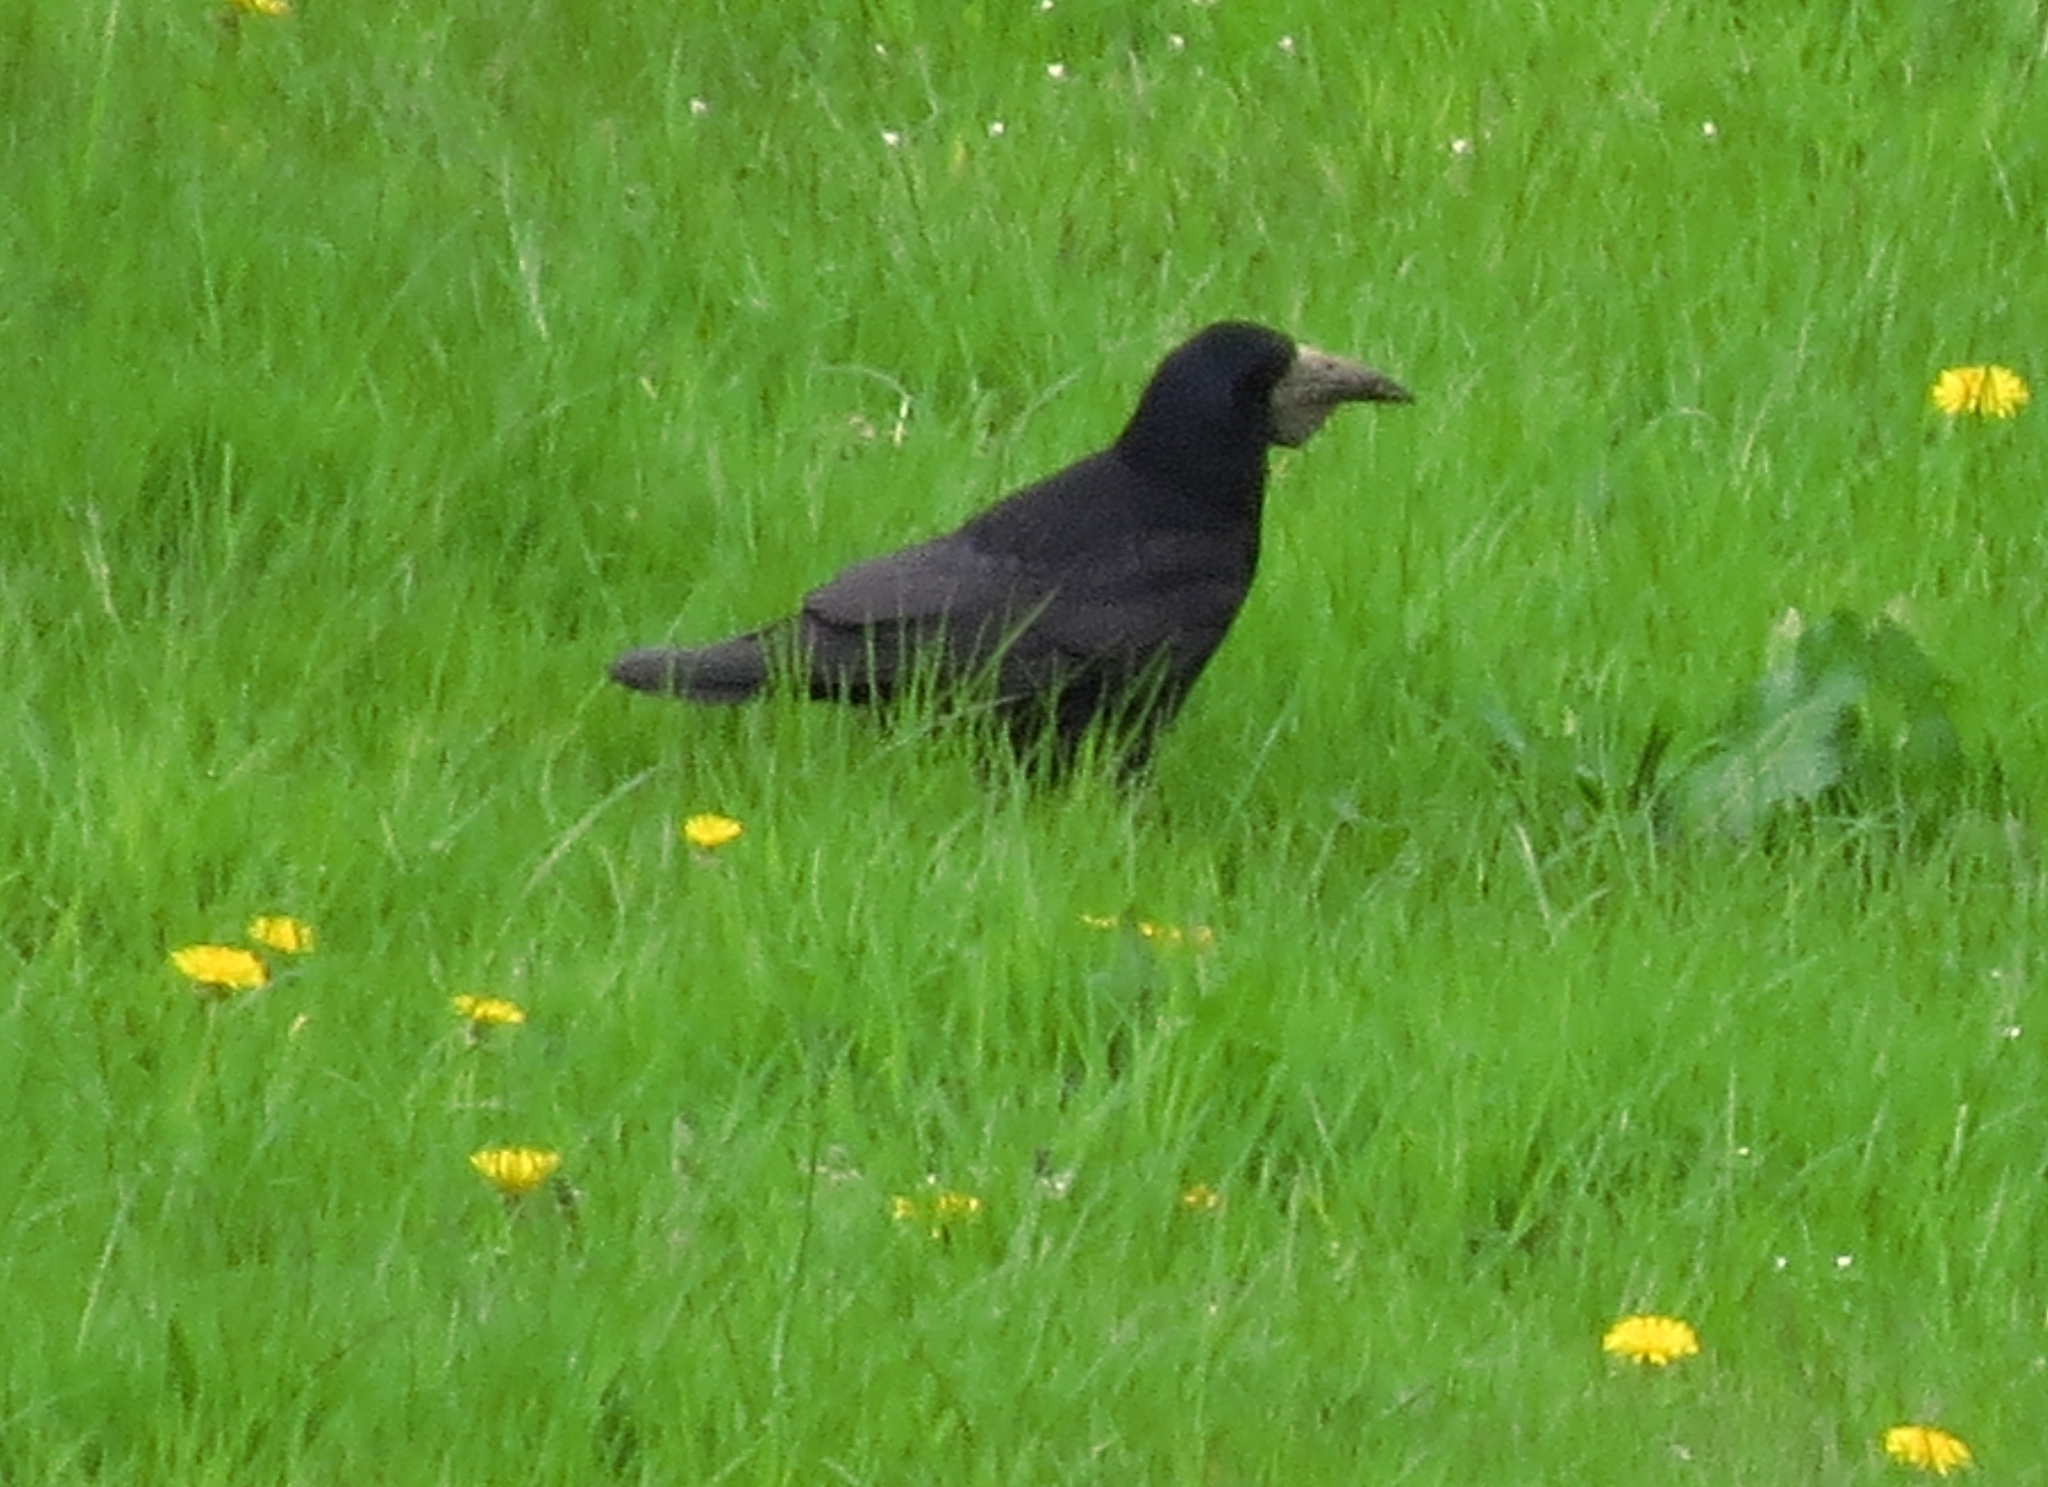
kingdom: Animalia
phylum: Chordata
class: Aves
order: Passeriformes
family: Corvidae
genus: Corvus
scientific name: Corvus frugilegus
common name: Rook
